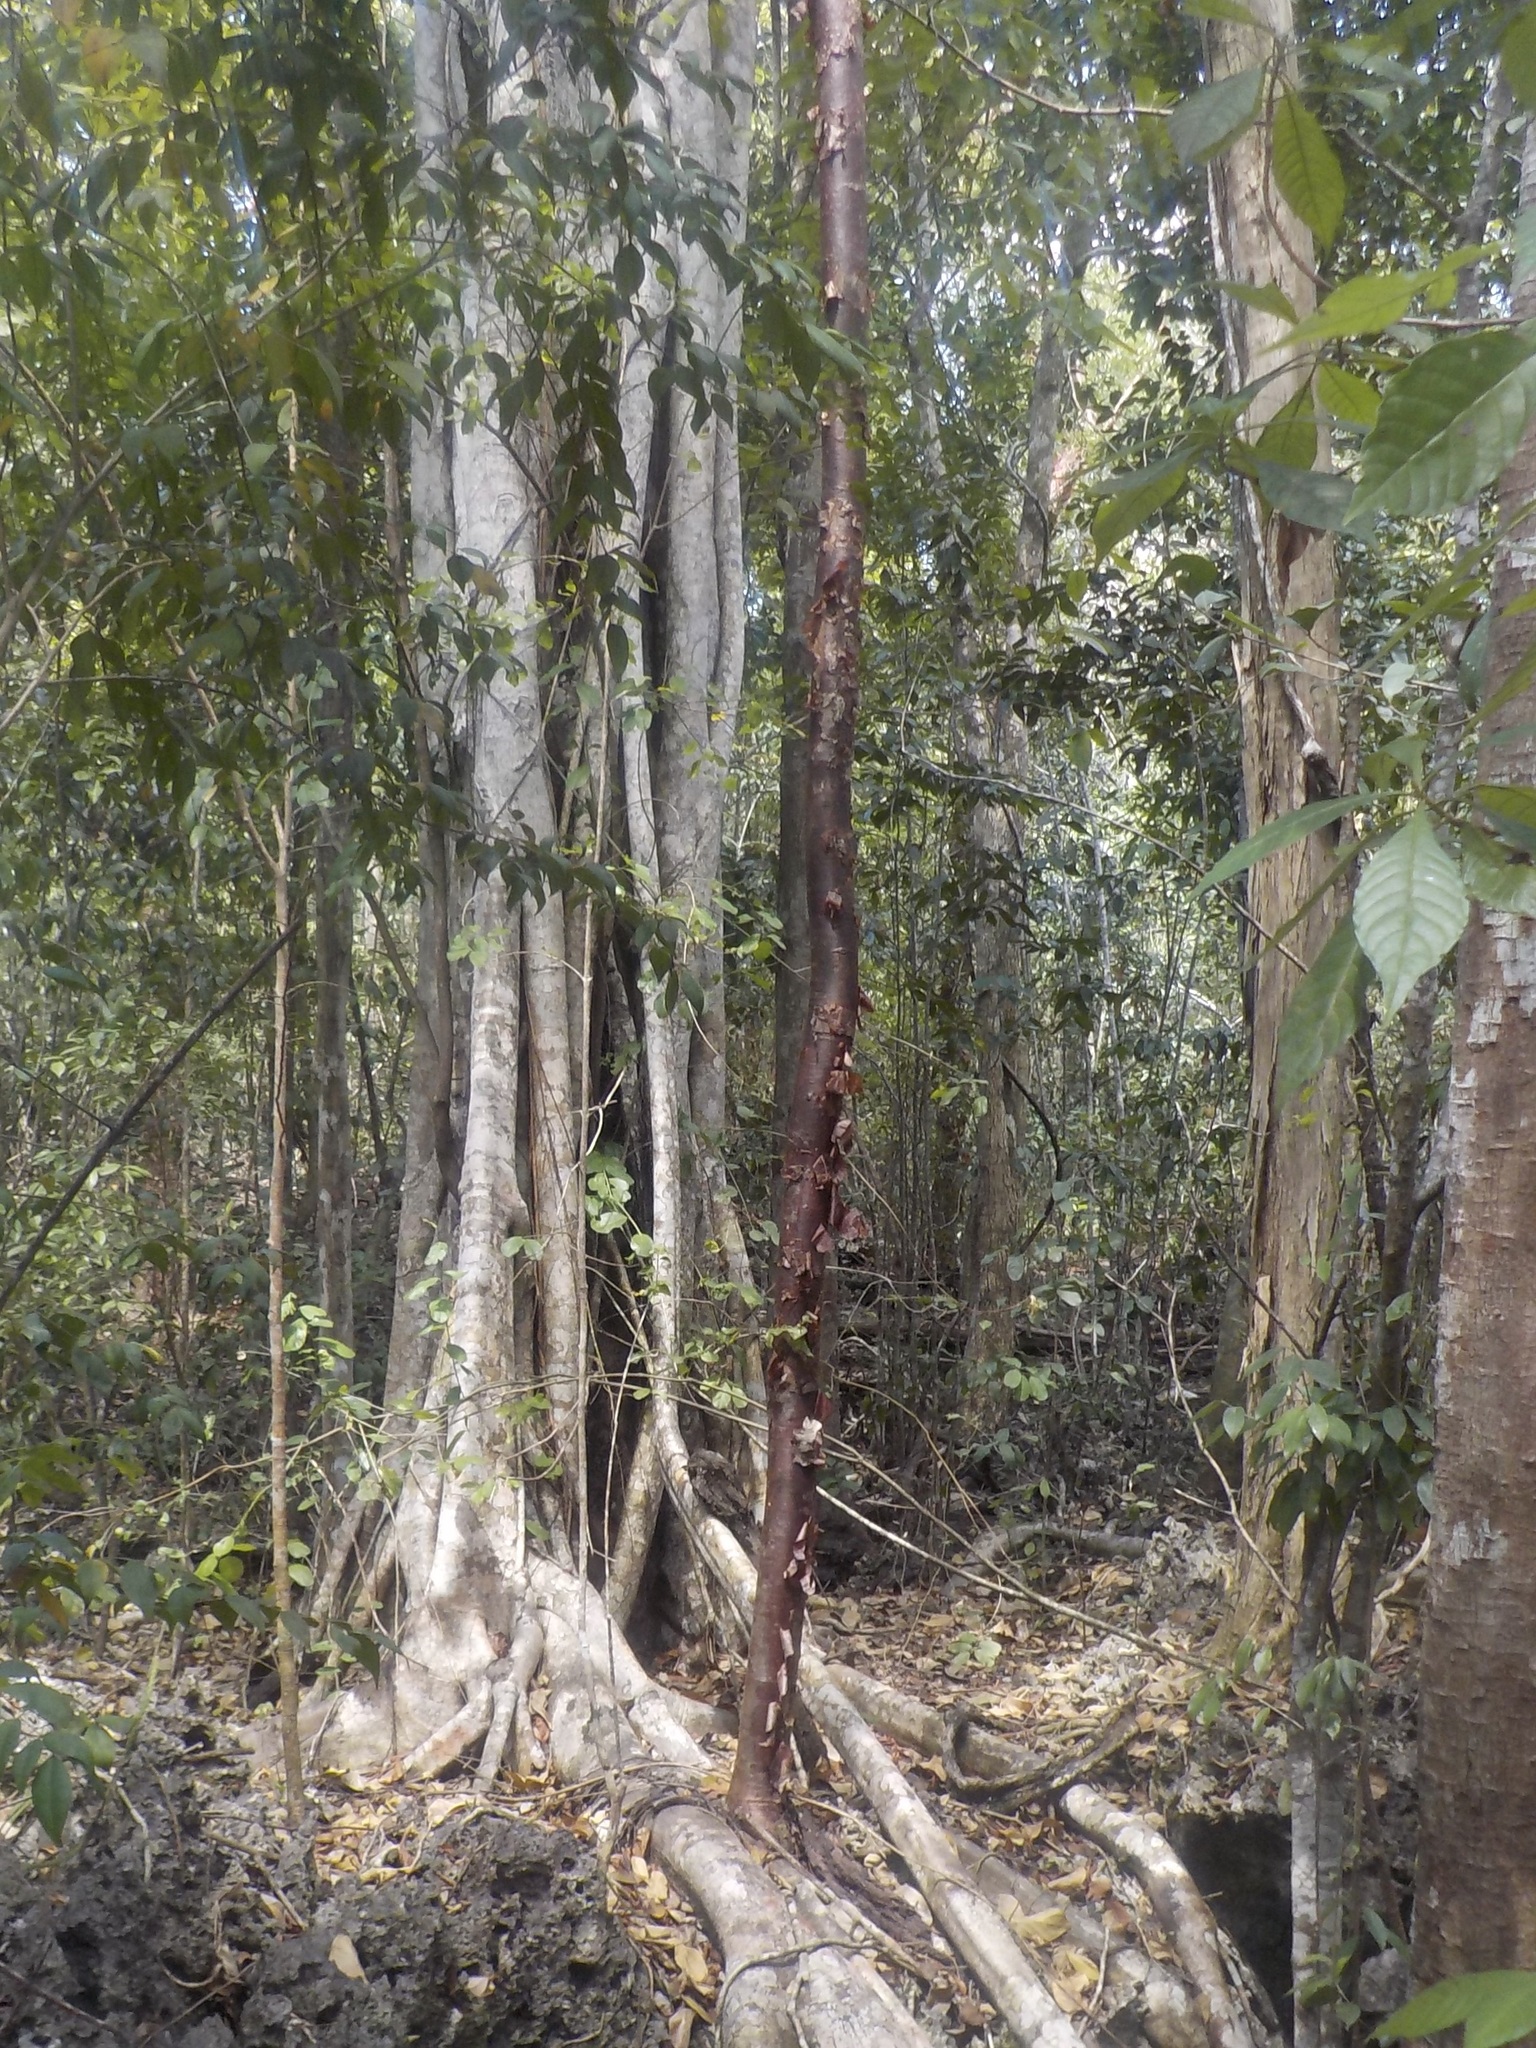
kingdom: Plantae
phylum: Tracheophyta
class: Magnoliopsida
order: Sapindales
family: Burseraceae
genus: Bursera
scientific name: Bursera simaruba
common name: Turpentine tree
